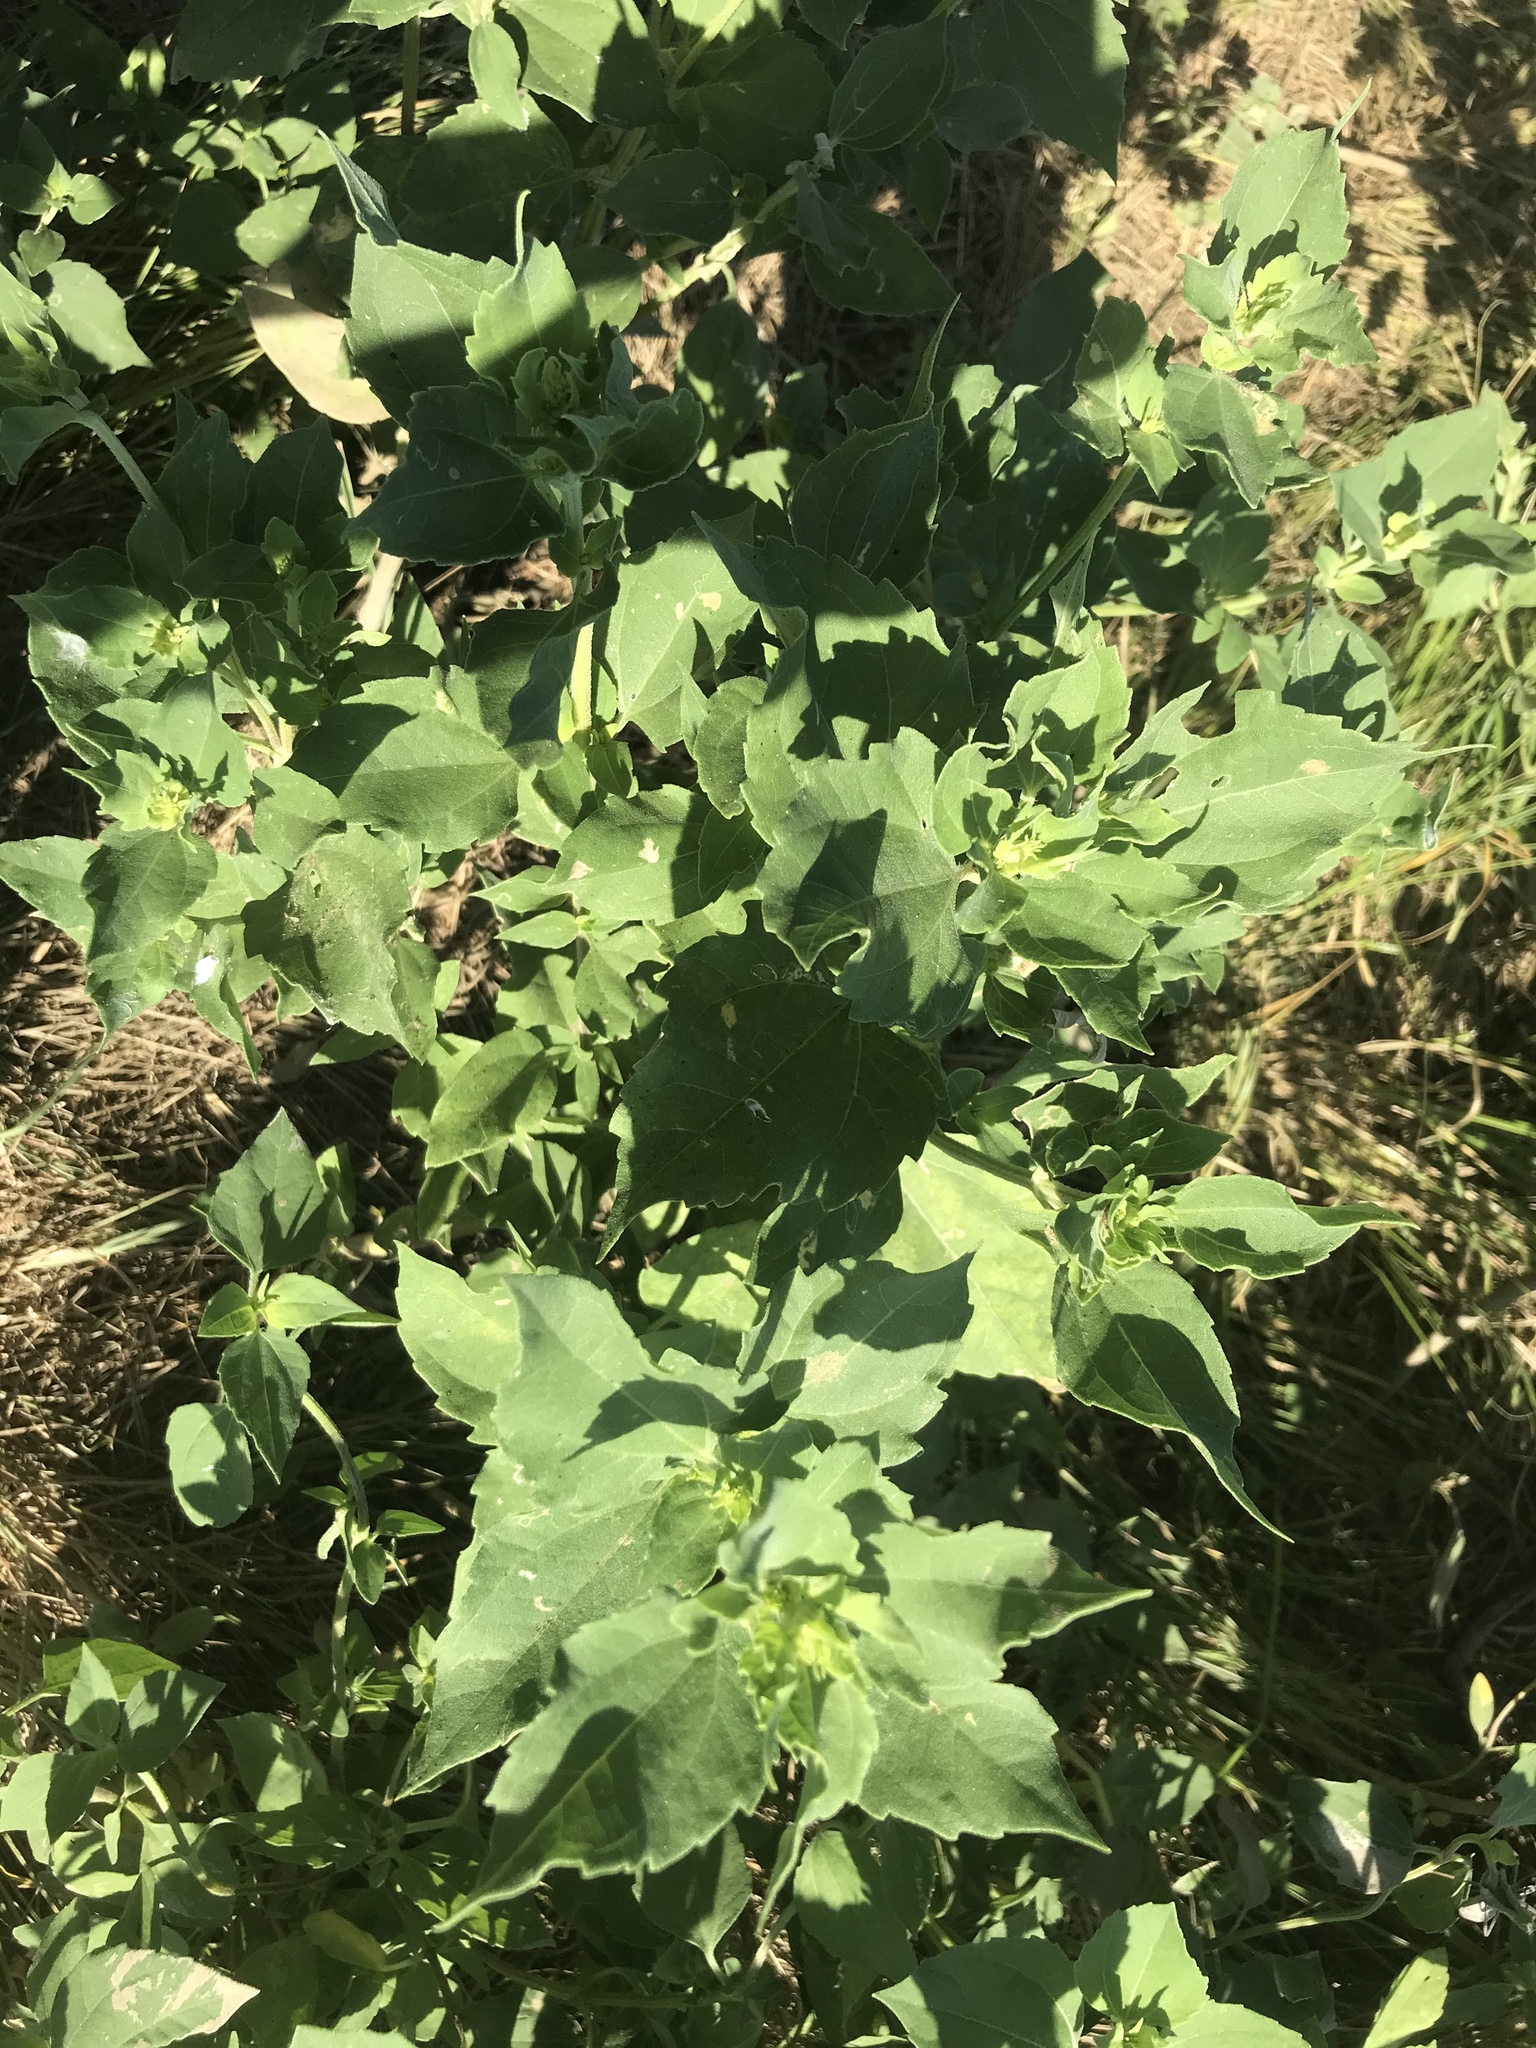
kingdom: Plantae
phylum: Tracheophyta
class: Magnoliopsida
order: Asterales
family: Asteraceae
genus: Iva
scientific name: Iva annua
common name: Marsh-elder
